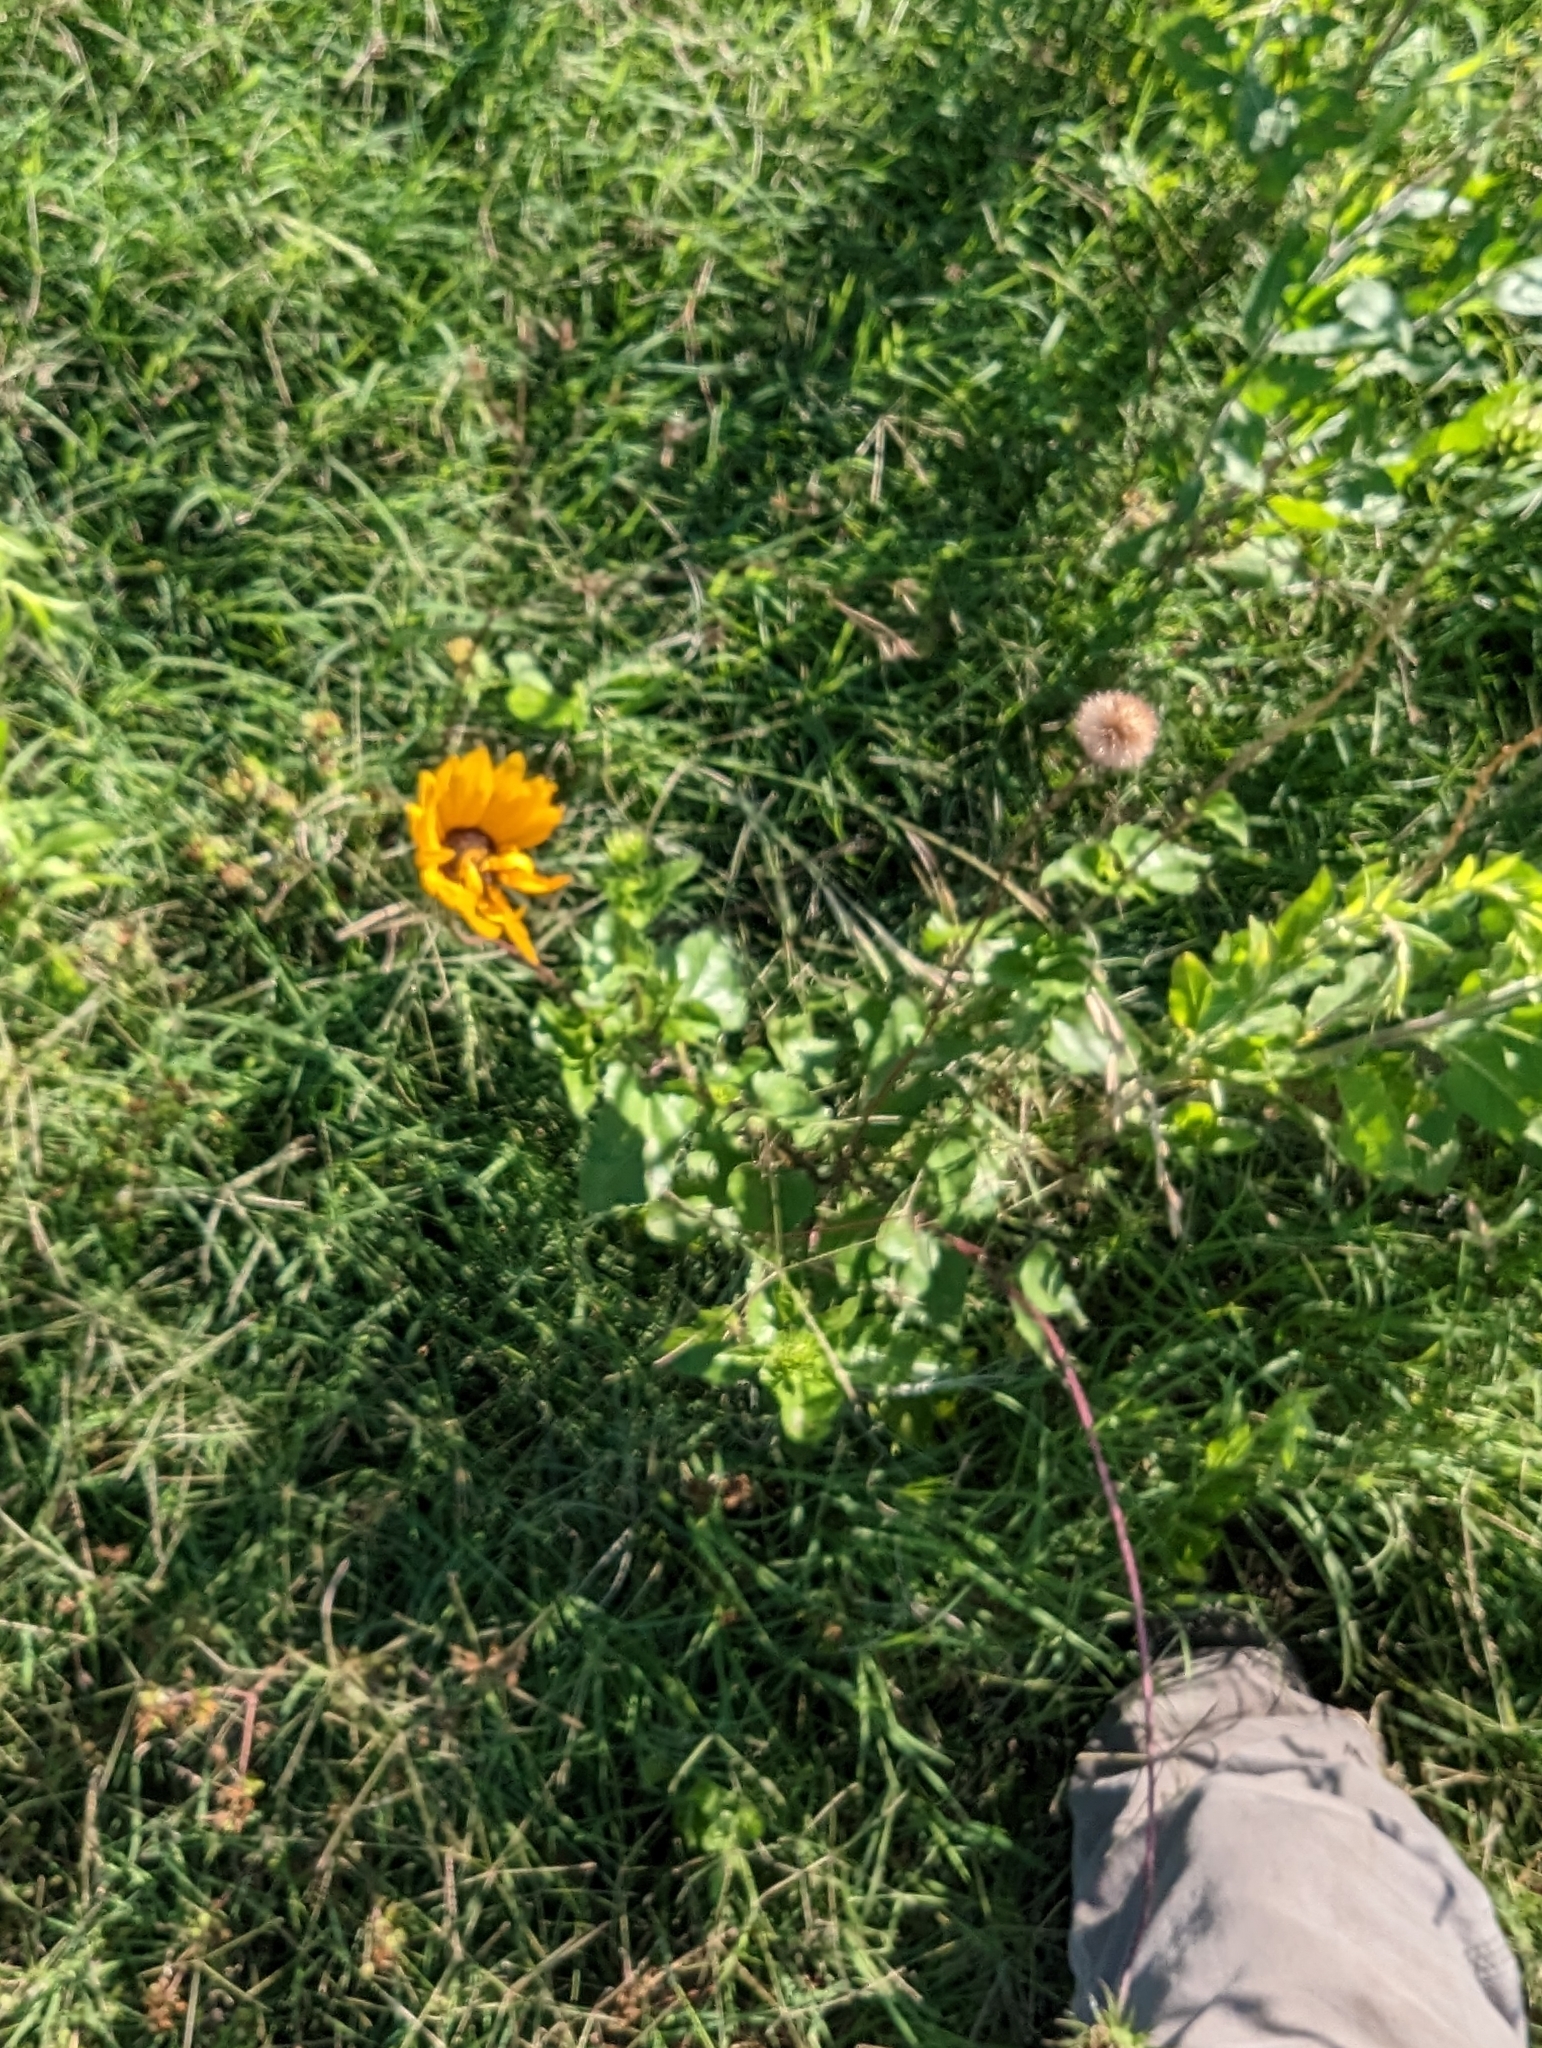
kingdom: Plantae
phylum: Tracheophyta
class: Magnoliopsida
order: Asterales
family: Asteraceae
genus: Helianthus
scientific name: Helianthus debilis
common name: Weak sunflower
